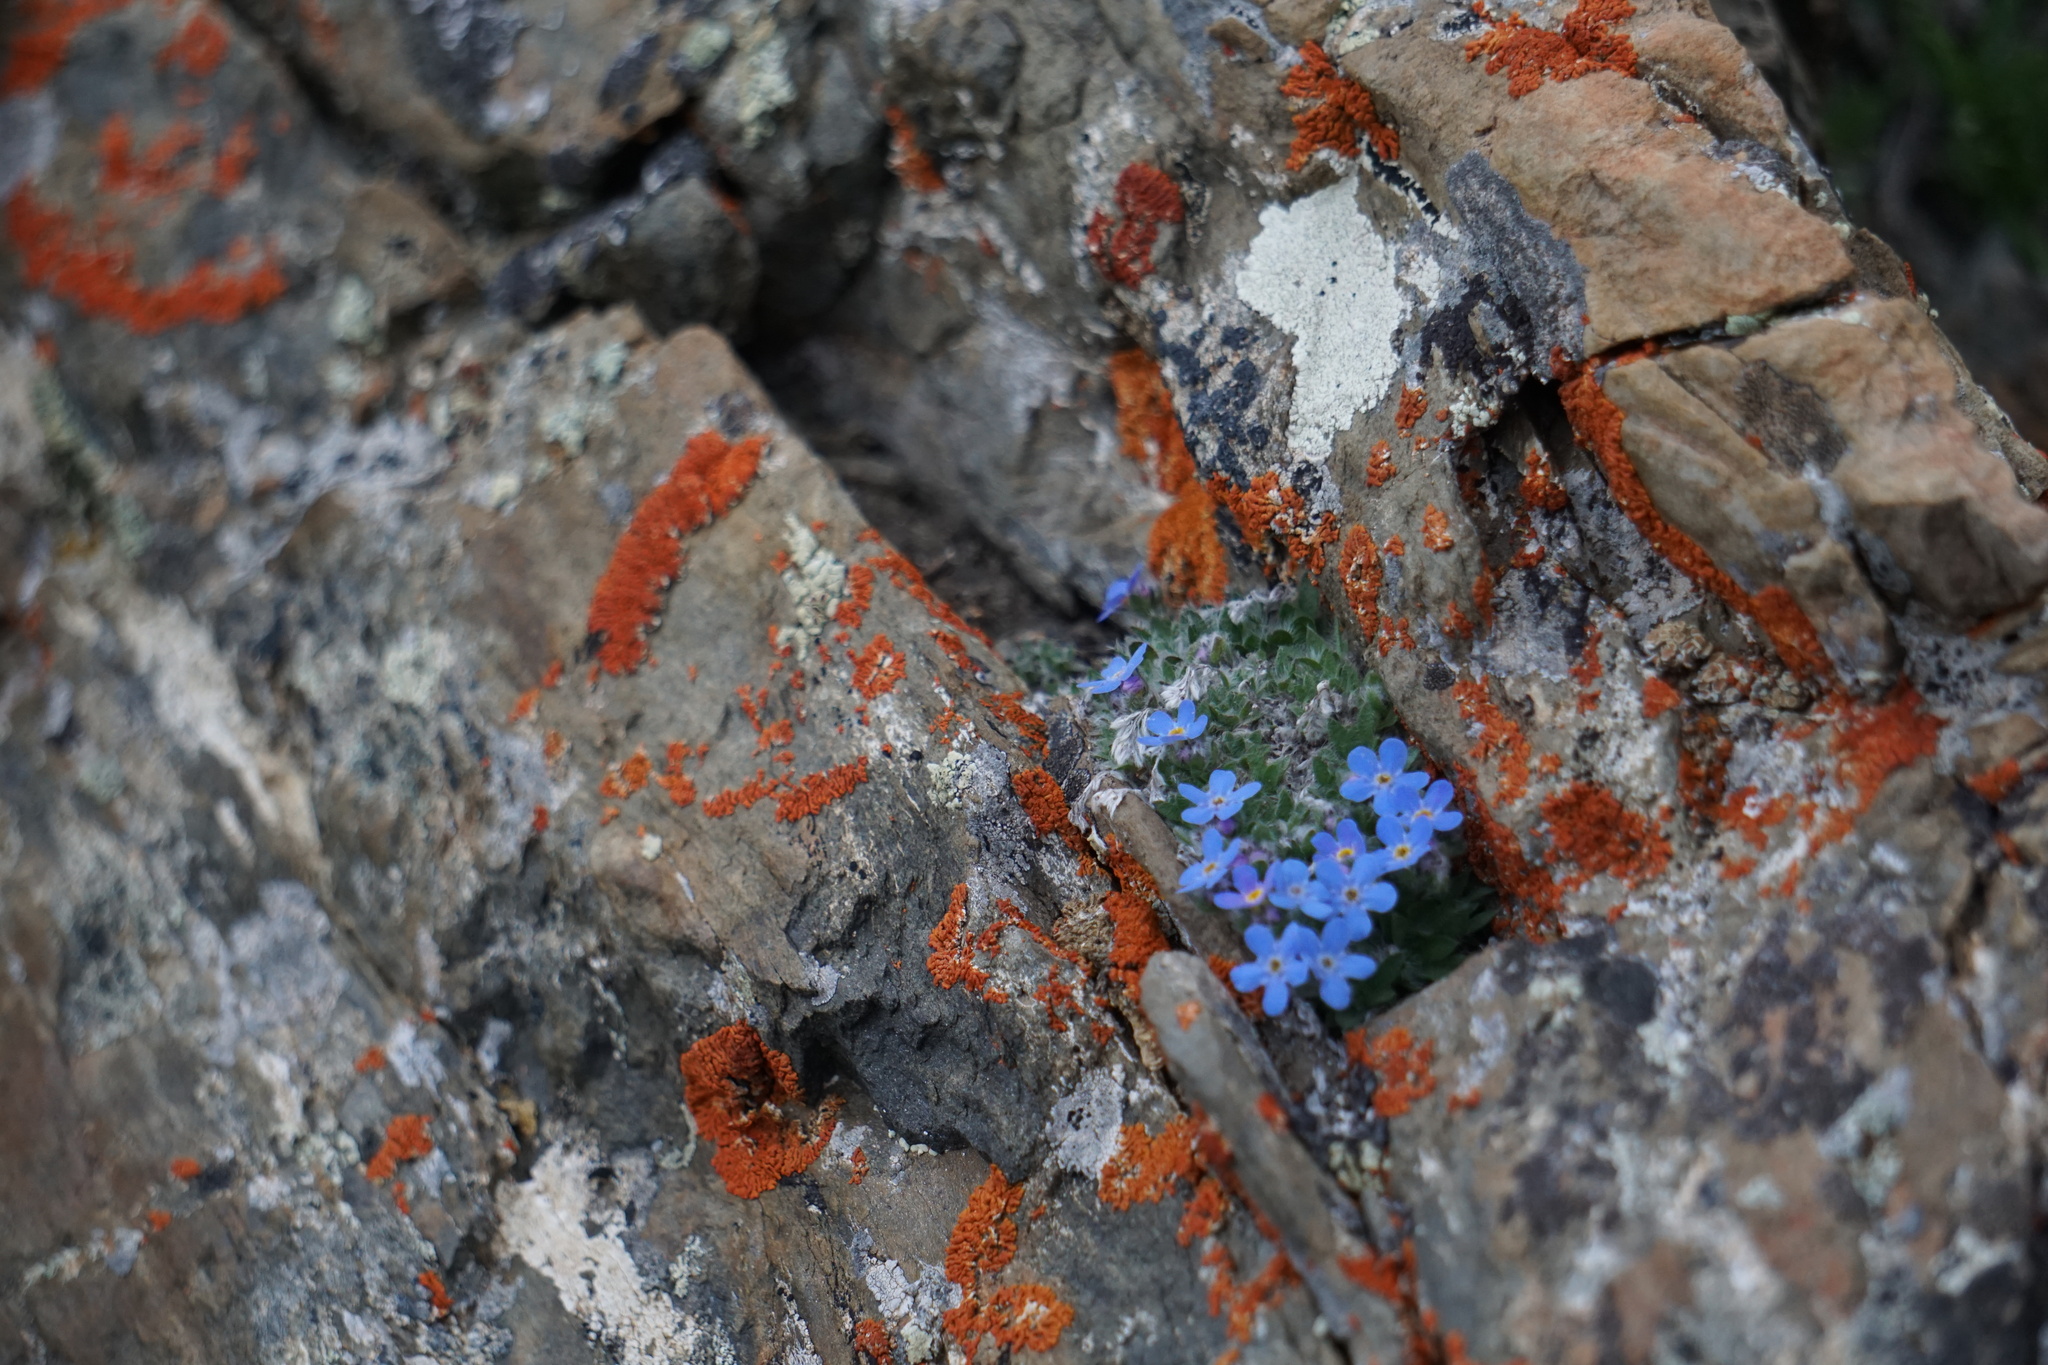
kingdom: Plantae
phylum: Tracheophyta
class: Magnoliopsida
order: Boraginales
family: Boraginaceae
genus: Eritrichium
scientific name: Eritrichium nanum
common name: King-of-the-alps
